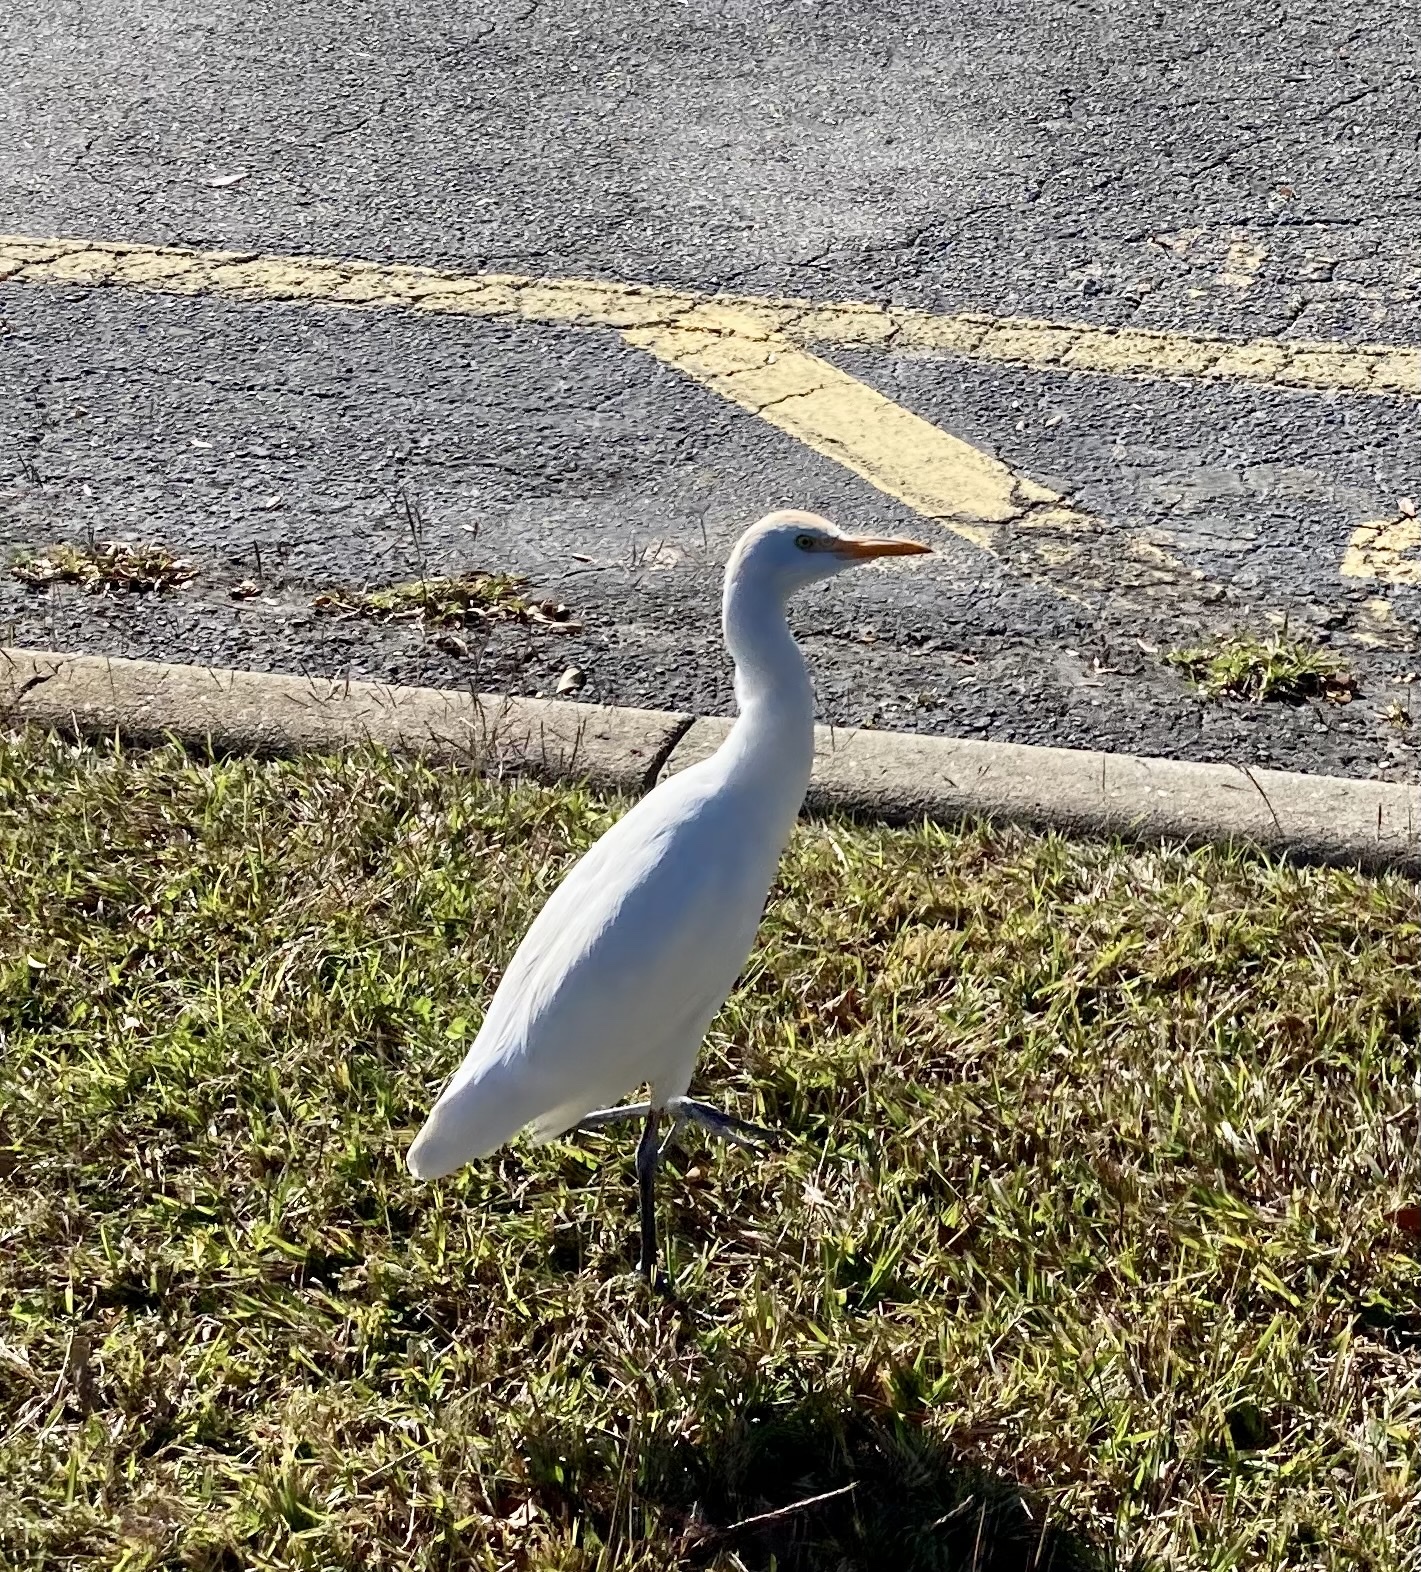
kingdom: Animalia
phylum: Chordata
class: Aves
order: Pelecaniformes
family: Ardeidae
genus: Bubulcus
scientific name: Bubulcus ibis
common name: Cattle egret
